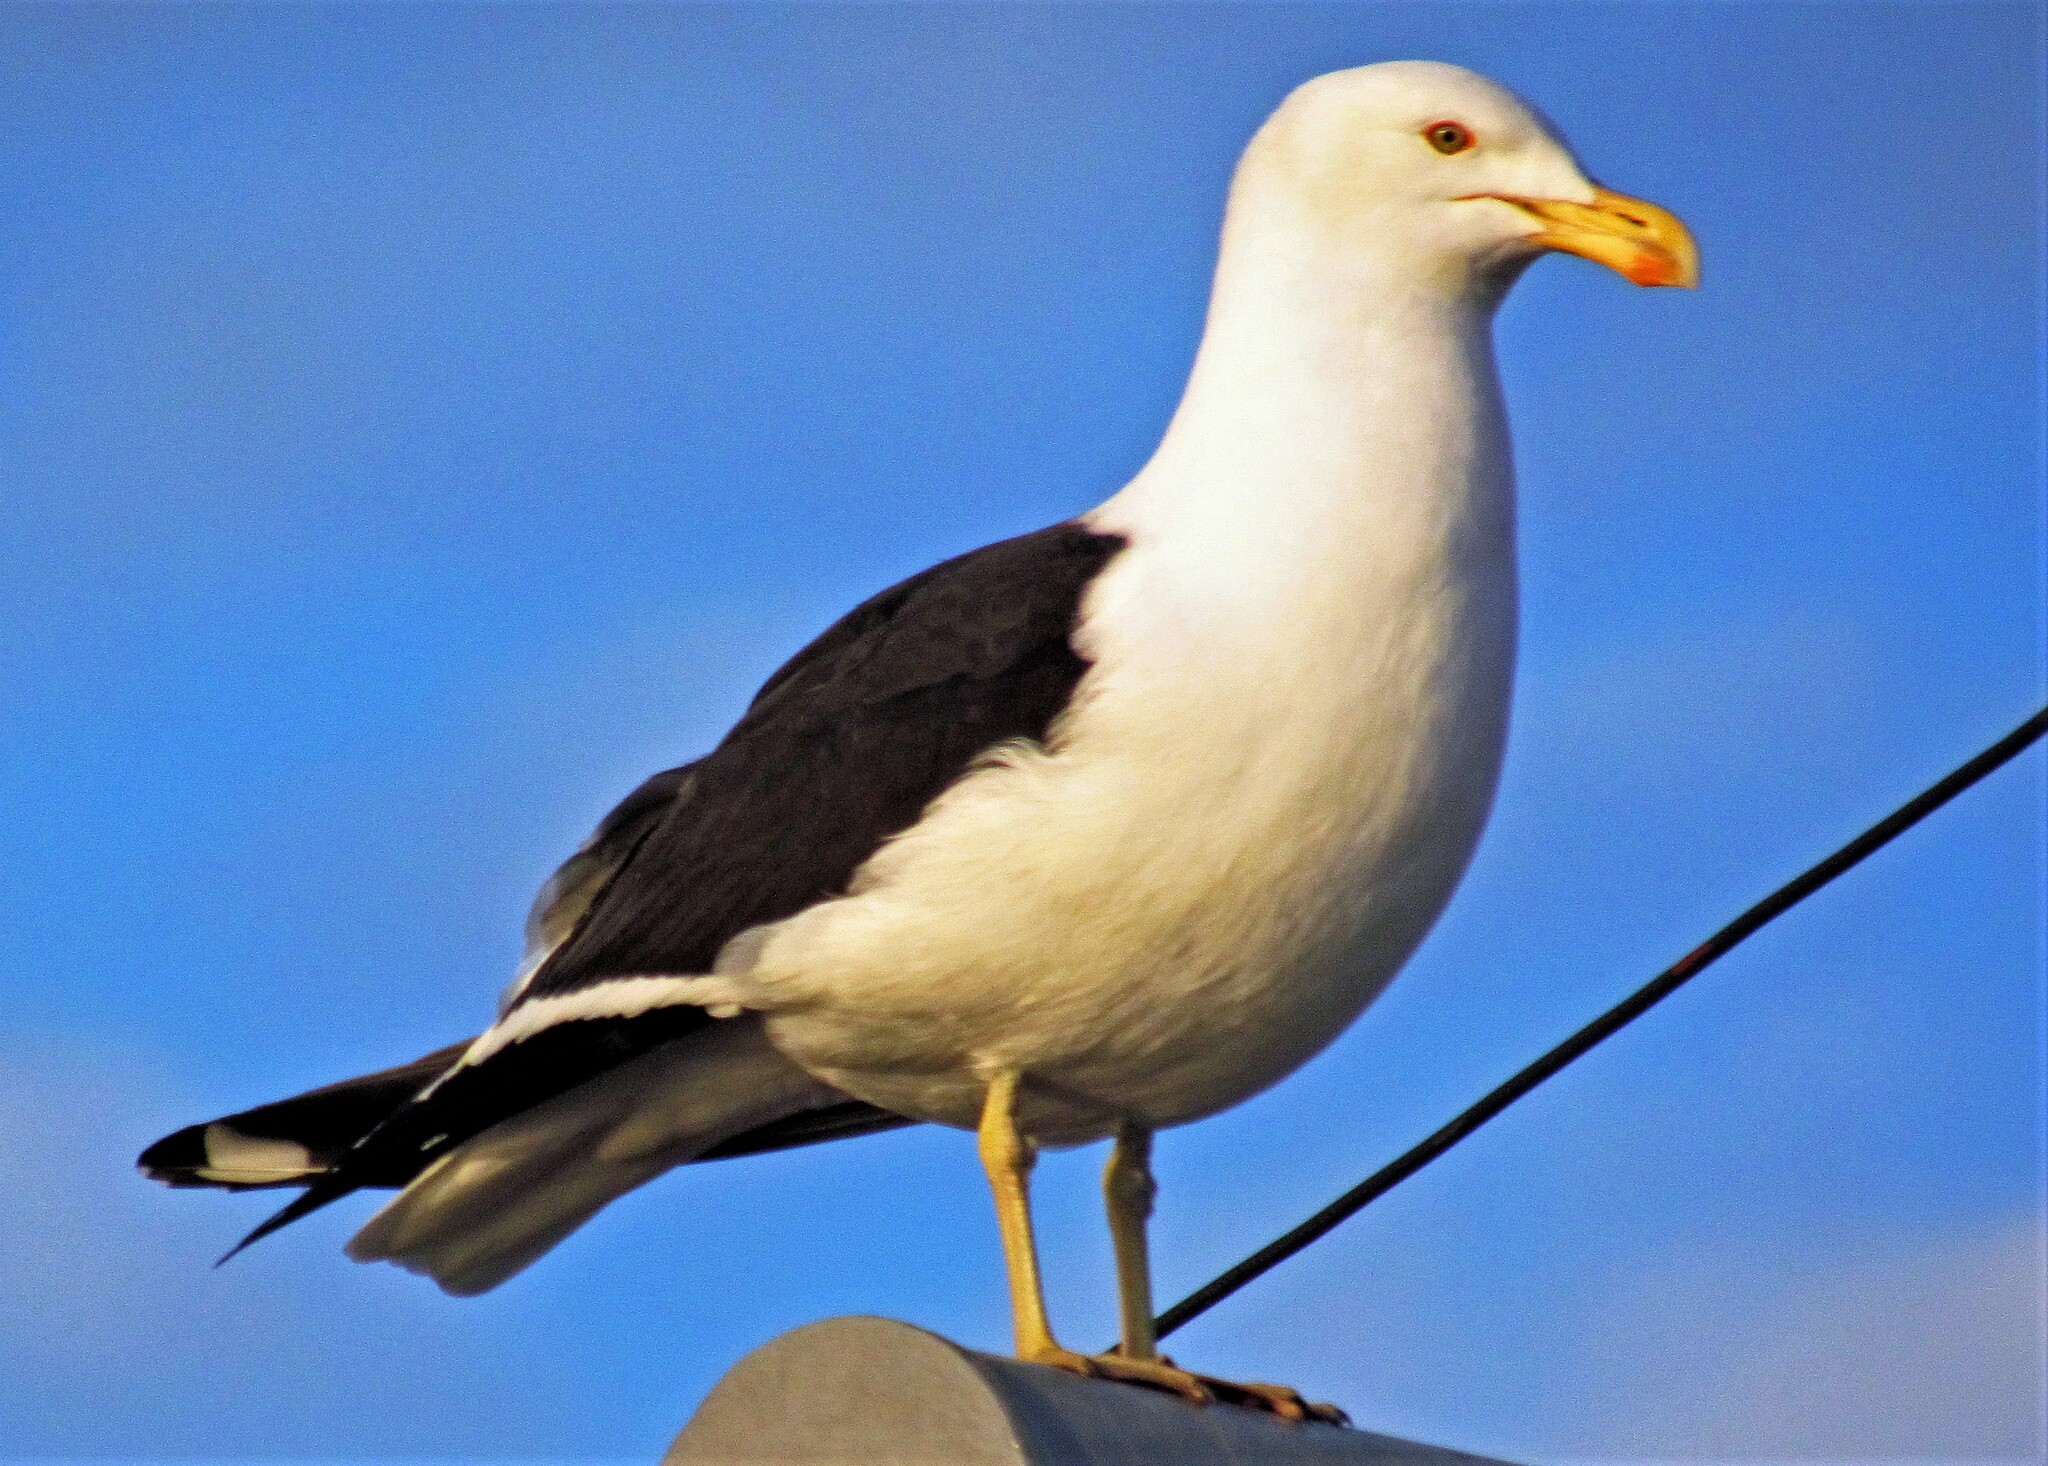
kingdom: Animalia
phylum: Chordata
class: Aves
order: Charadriiformes
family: Laridae
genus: Larus
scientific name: Larus dominicanus
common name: Kelp gull
